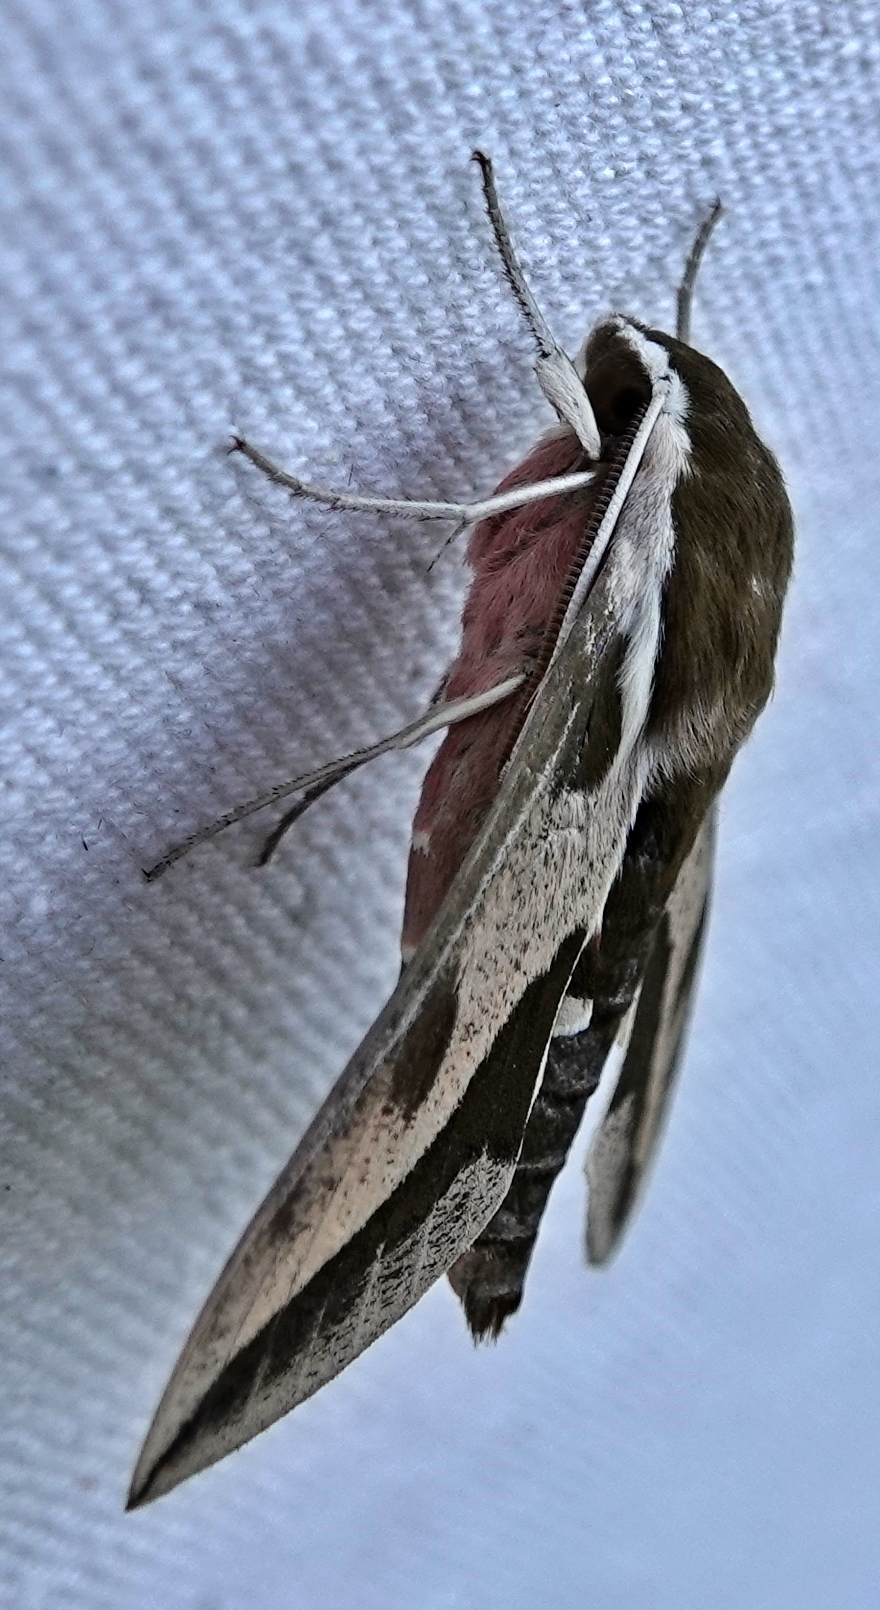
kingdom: Animalia
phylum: Arthropoda
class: Insecta
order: Lepidoptera
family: Sphingidae
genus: Hyles
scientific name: Hyles euphorbiae
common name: Spurge hawk-moth
